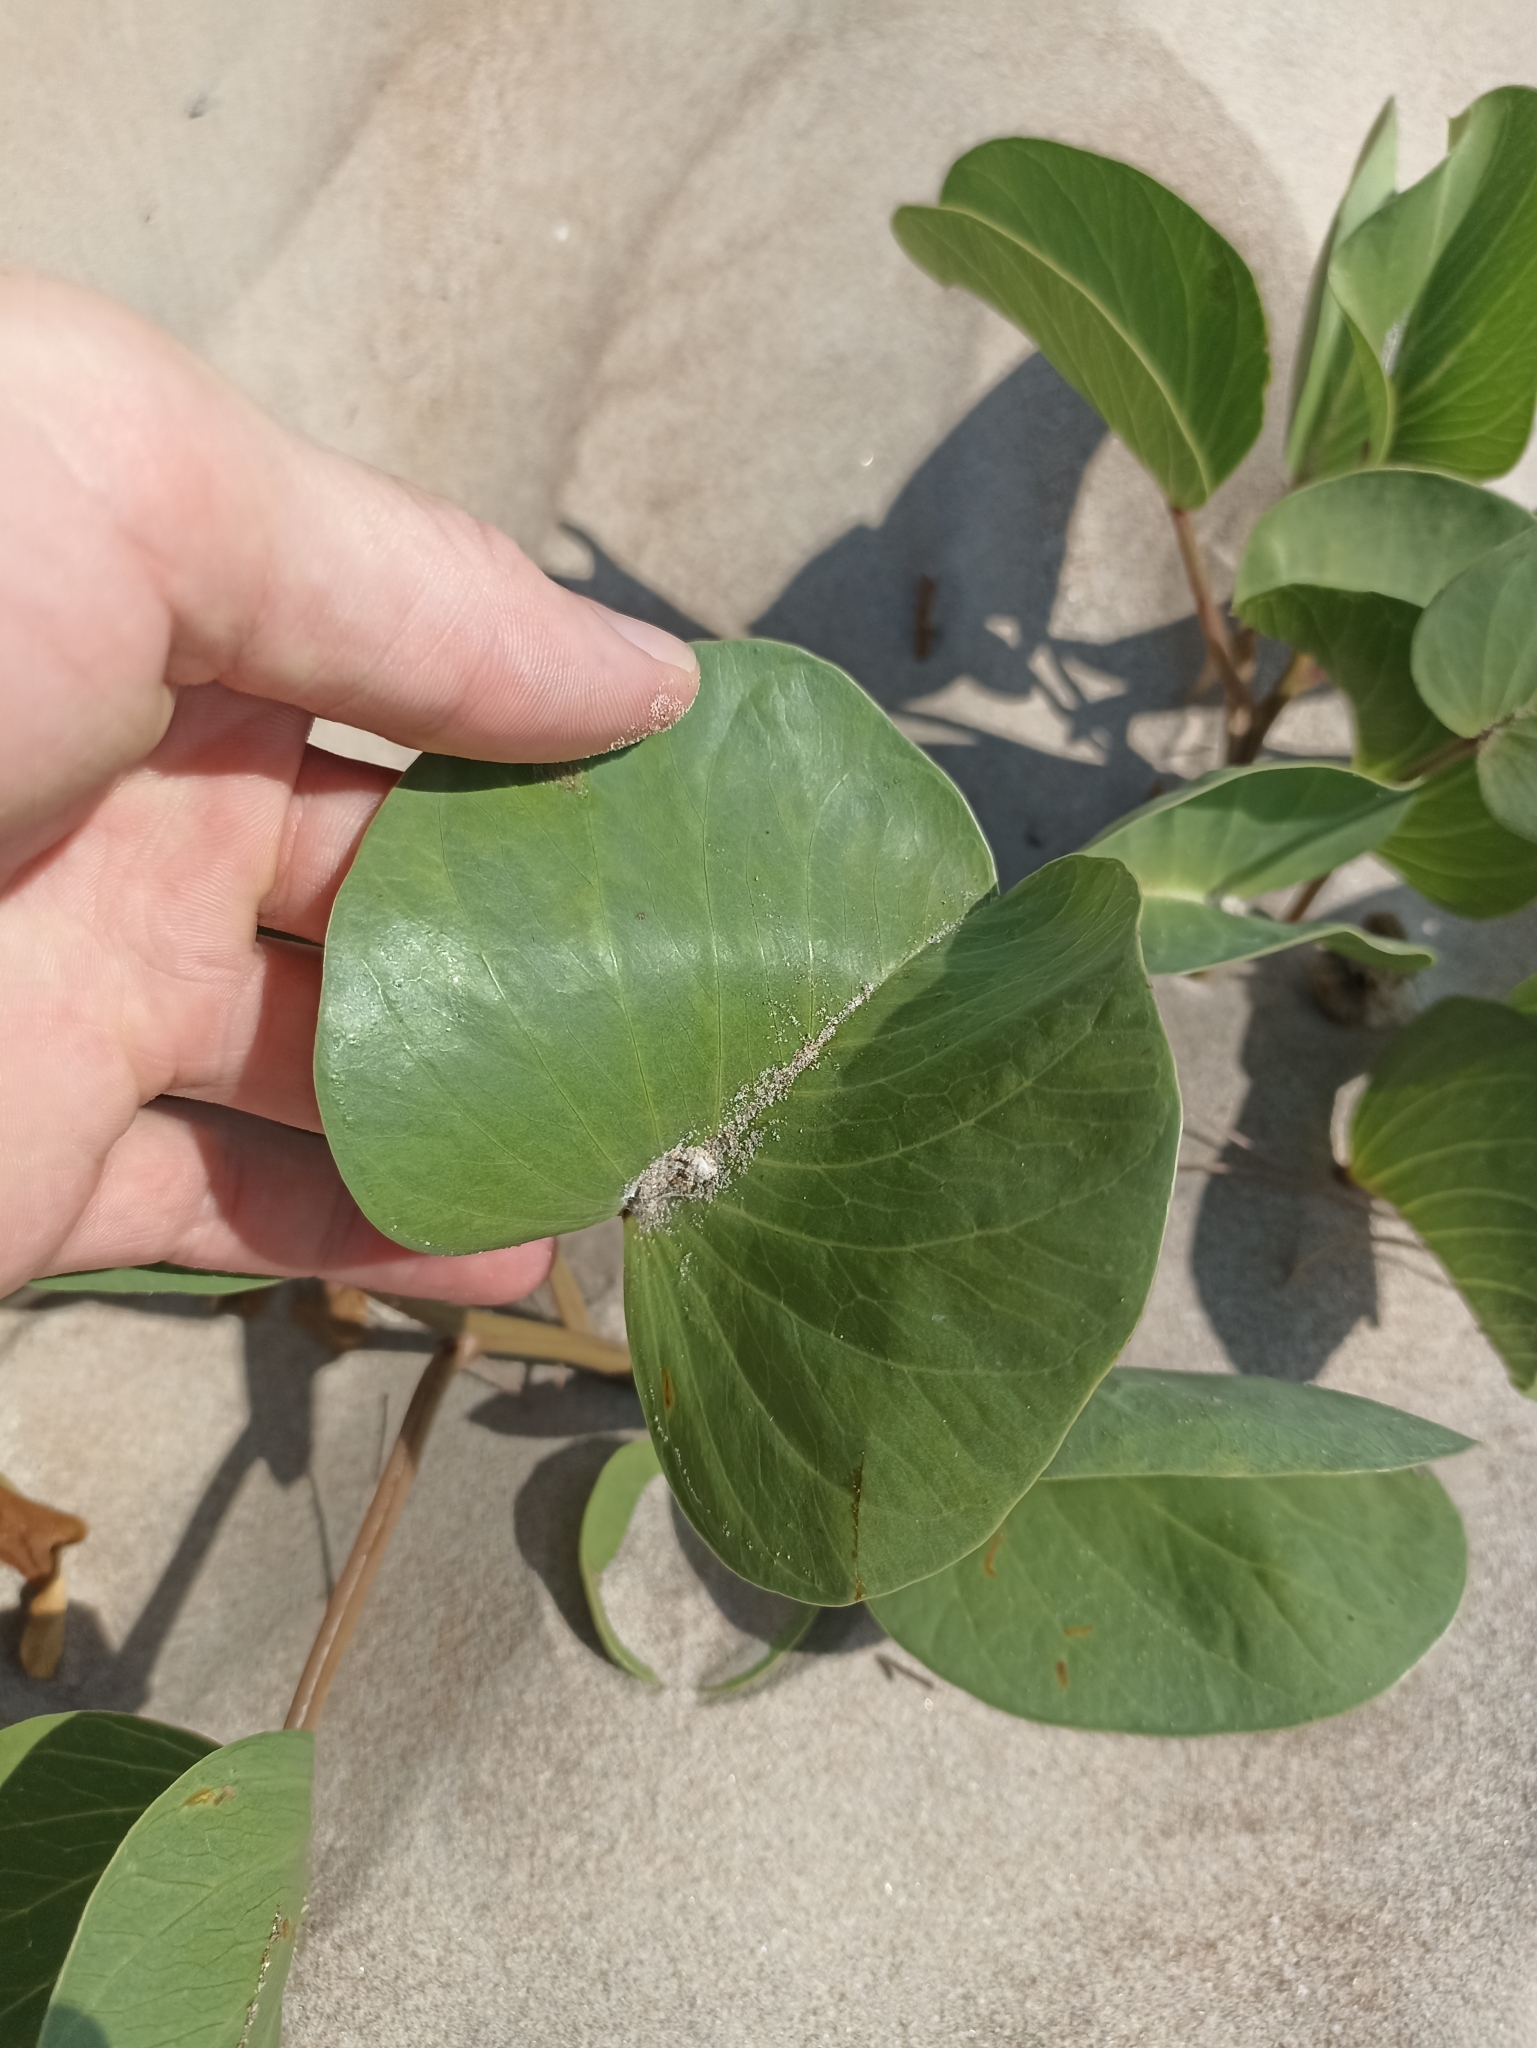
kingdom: Plantae
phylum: Tracheophyta
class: Magnoliopsida
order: Solanales
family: Convolvulaceae
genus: Ipomoea
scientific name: Ipomoea pes-caprae
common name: Beach morning glory
